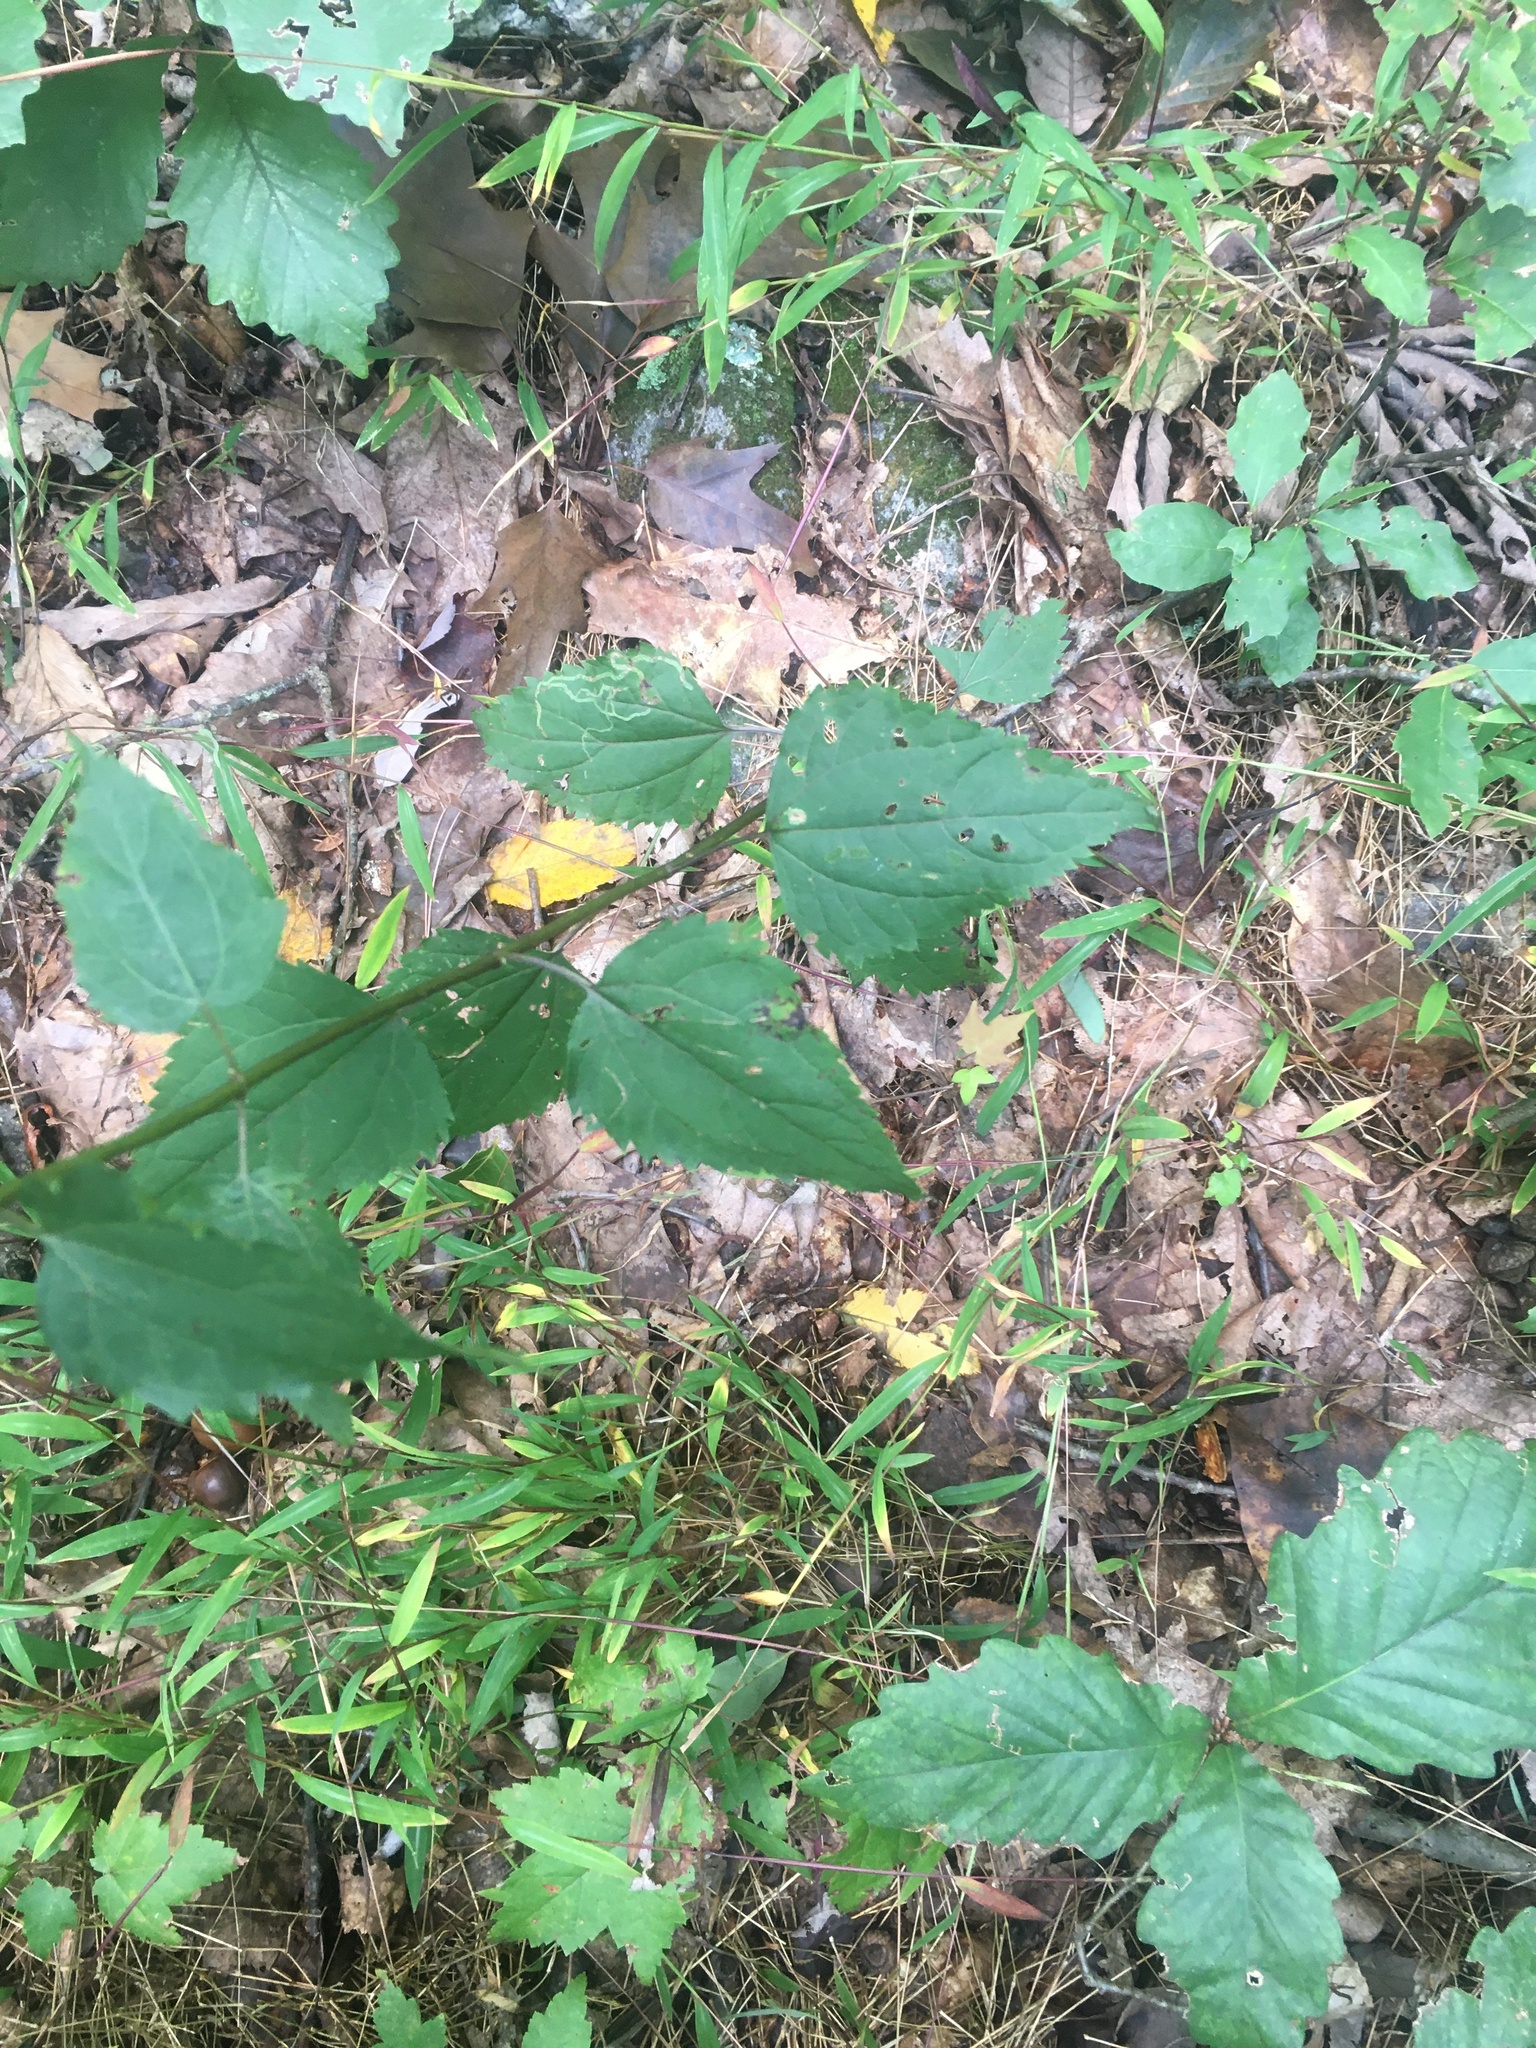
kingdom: Plantae
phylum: Tracheophyta
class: Magnoliopsida
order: Asterales
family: Asteraceae
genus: Ageratina
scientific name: Ageratina altissima
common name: White snakeroot
